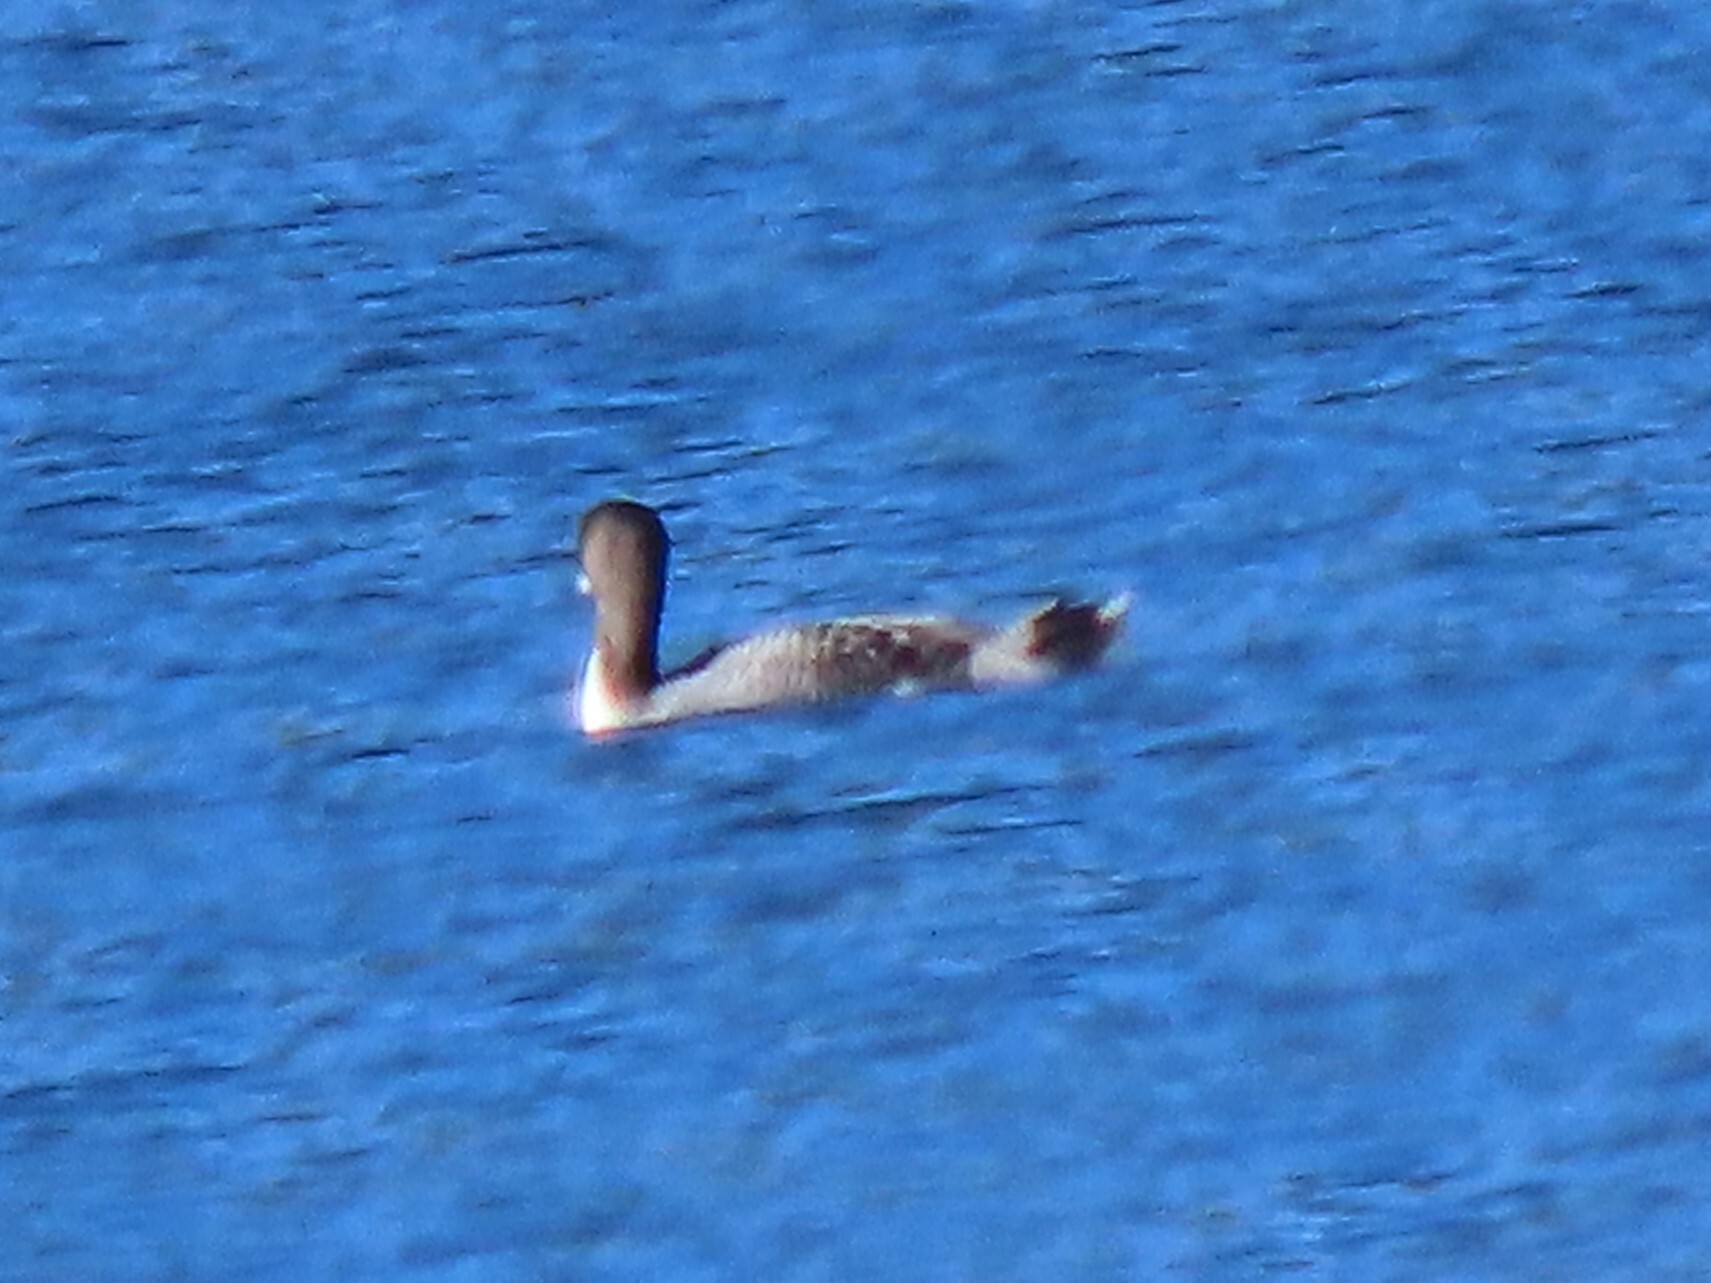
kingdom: Animalia
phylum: Chordata
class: Aves
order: Gaviiformes
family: Gaviidae
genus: Gavia
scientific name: Gavia immer
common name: Common loon
